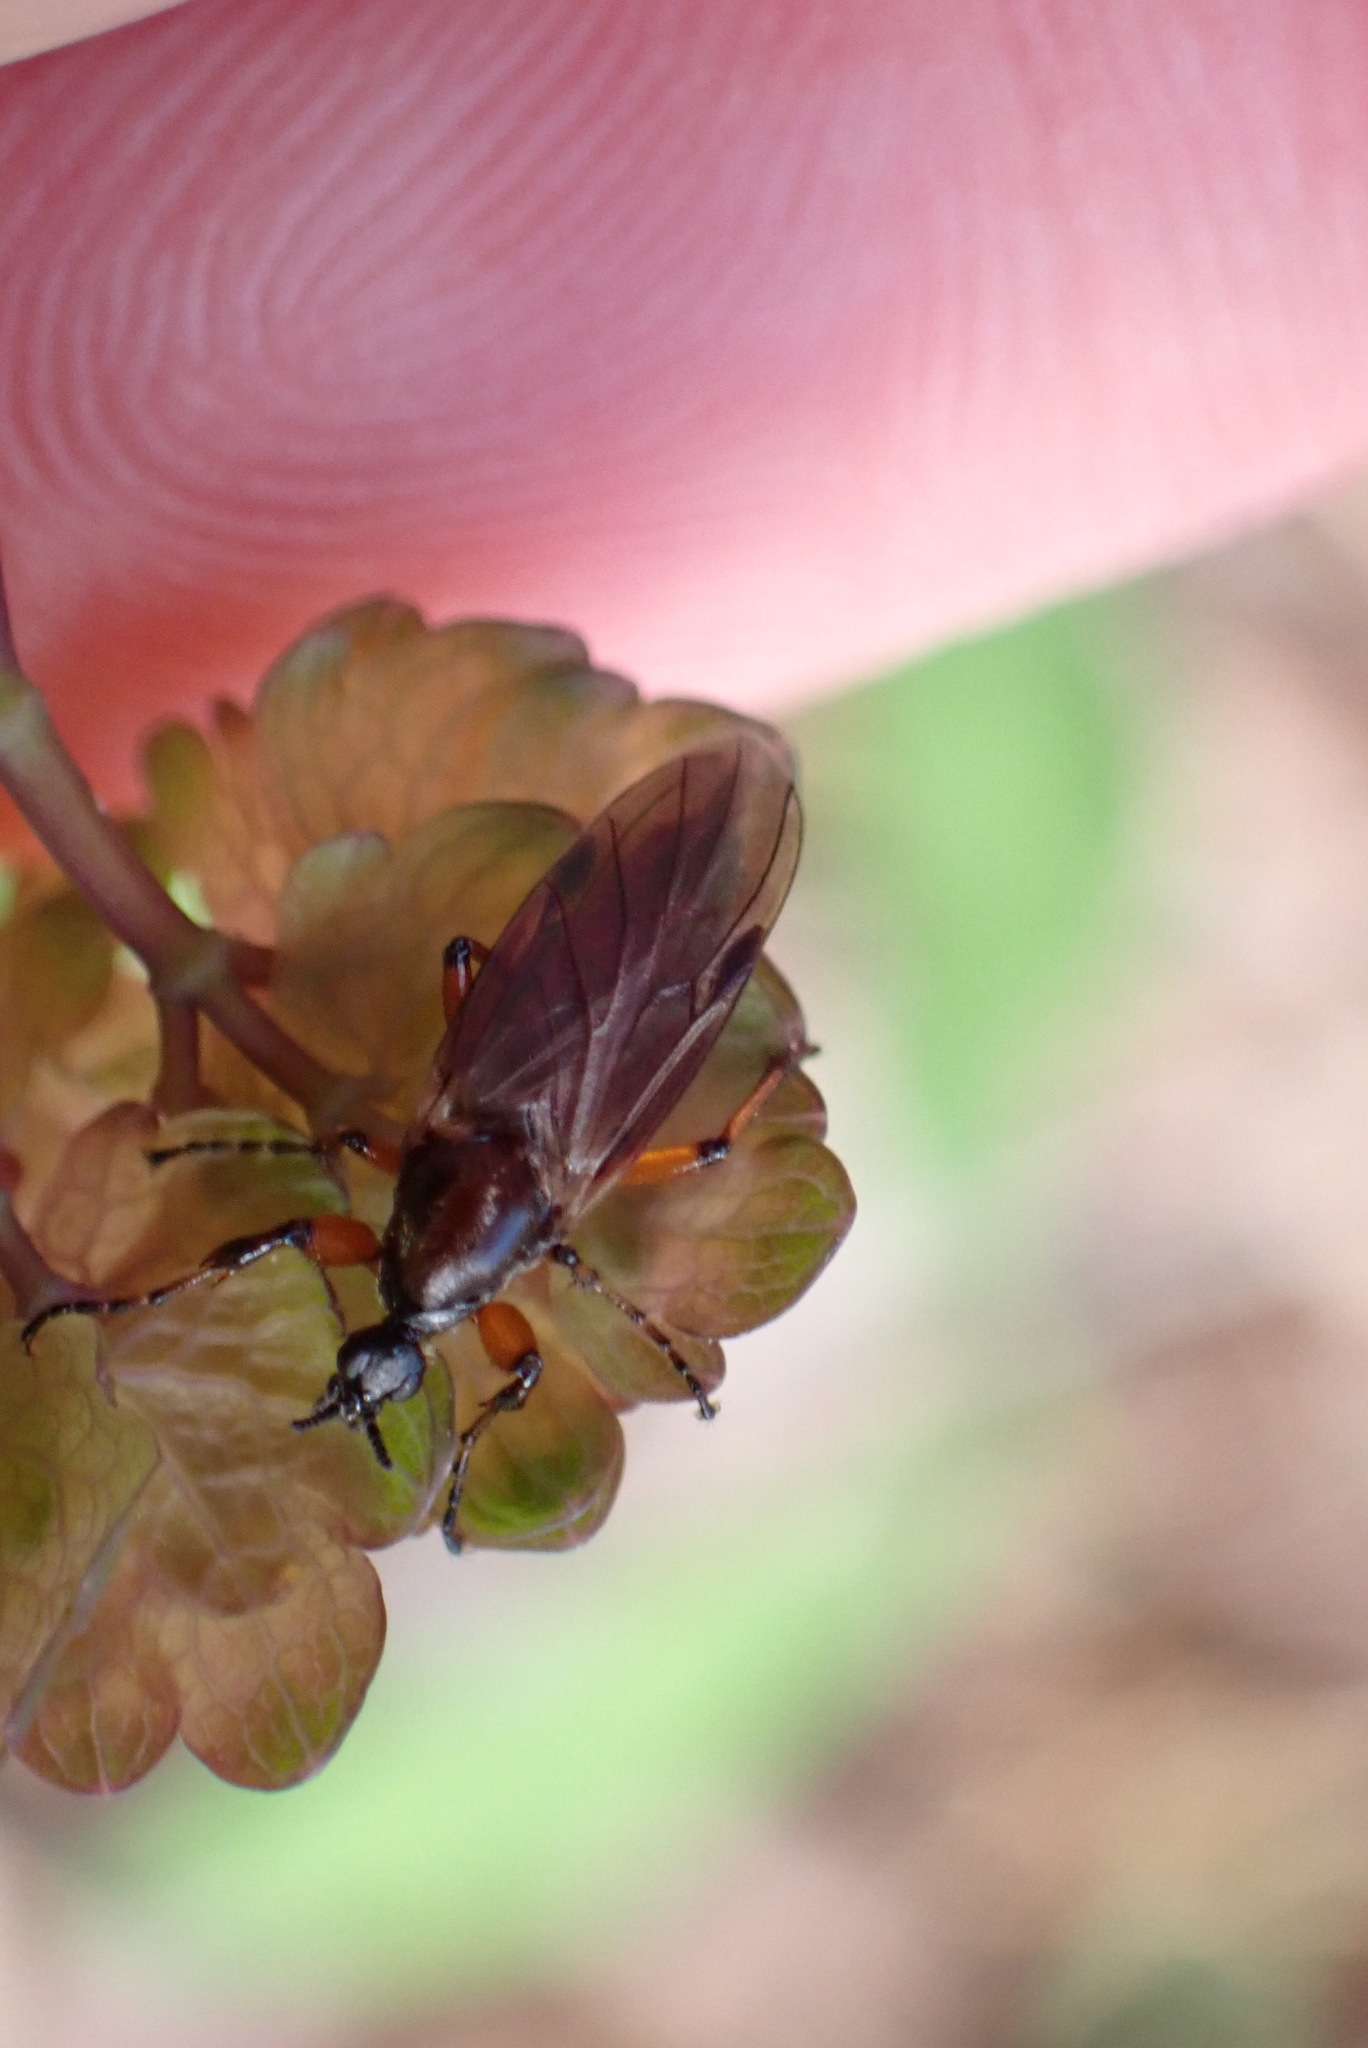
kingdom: Animalia
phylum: Arthropoda
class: Insecta
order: Diptera
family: Bibionidae
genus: Bibio
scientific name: Bibio articulatus
